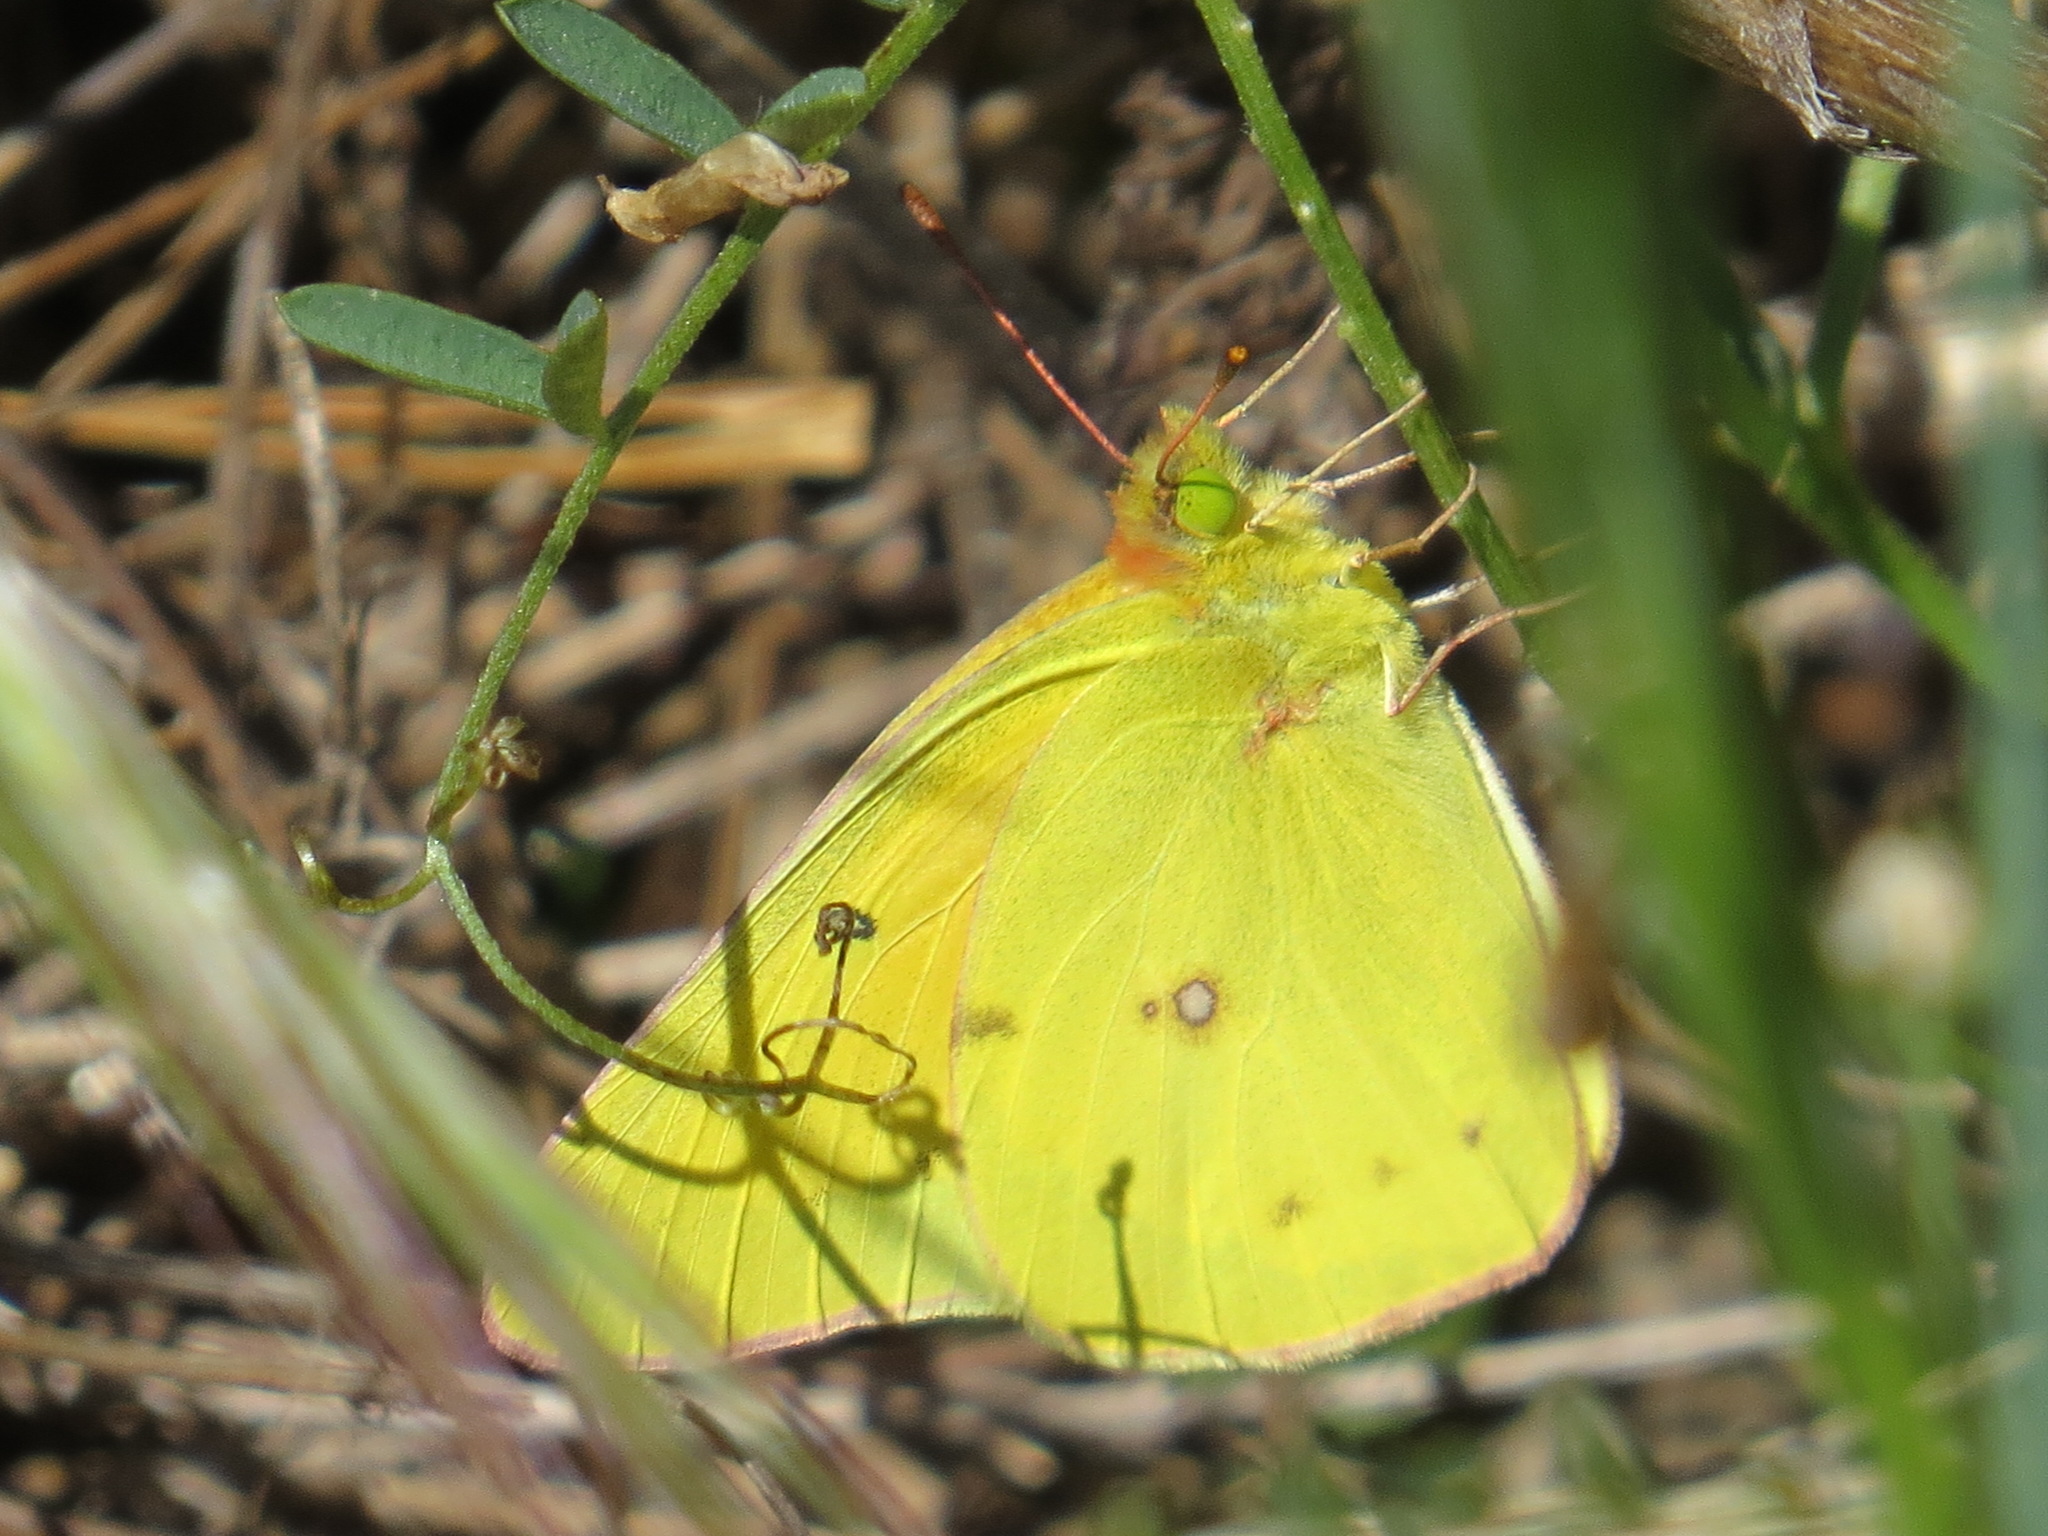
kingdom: Animalia
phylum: Arthropoda
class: Insecta
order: Lepidoptera
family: Pieridae
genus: Colias
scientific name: Colias eurytheme
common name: Alfalfa butterfly
